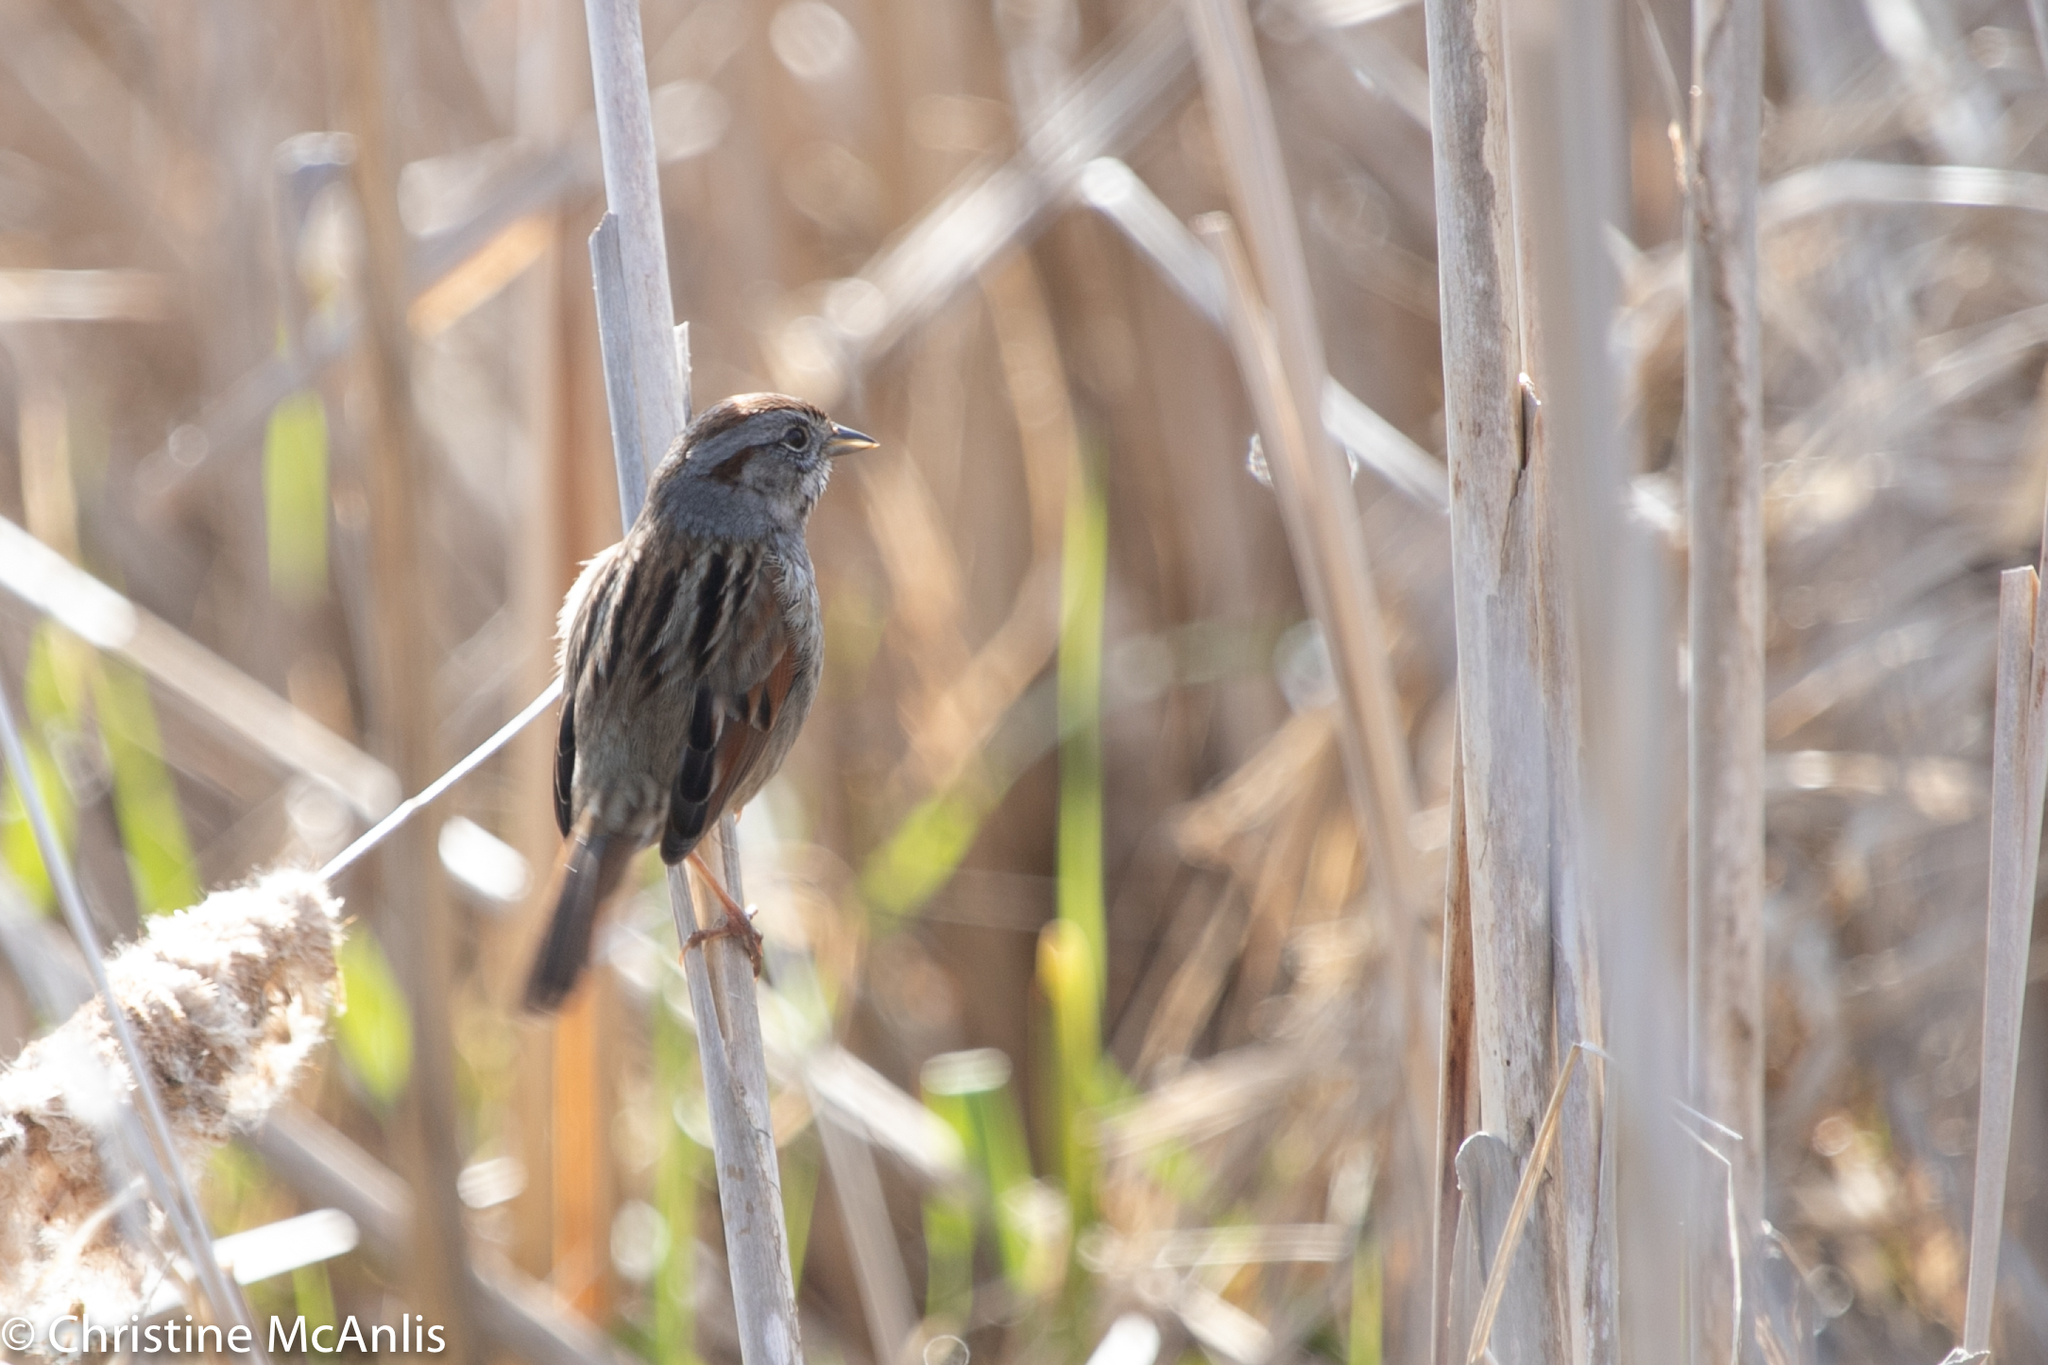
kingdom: Animalia
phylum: Chordata
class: Aves
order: Passeriformes
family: Passerellidae
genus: Melospiza
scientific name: Melospiza georgiana
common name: Swamp sparrow
